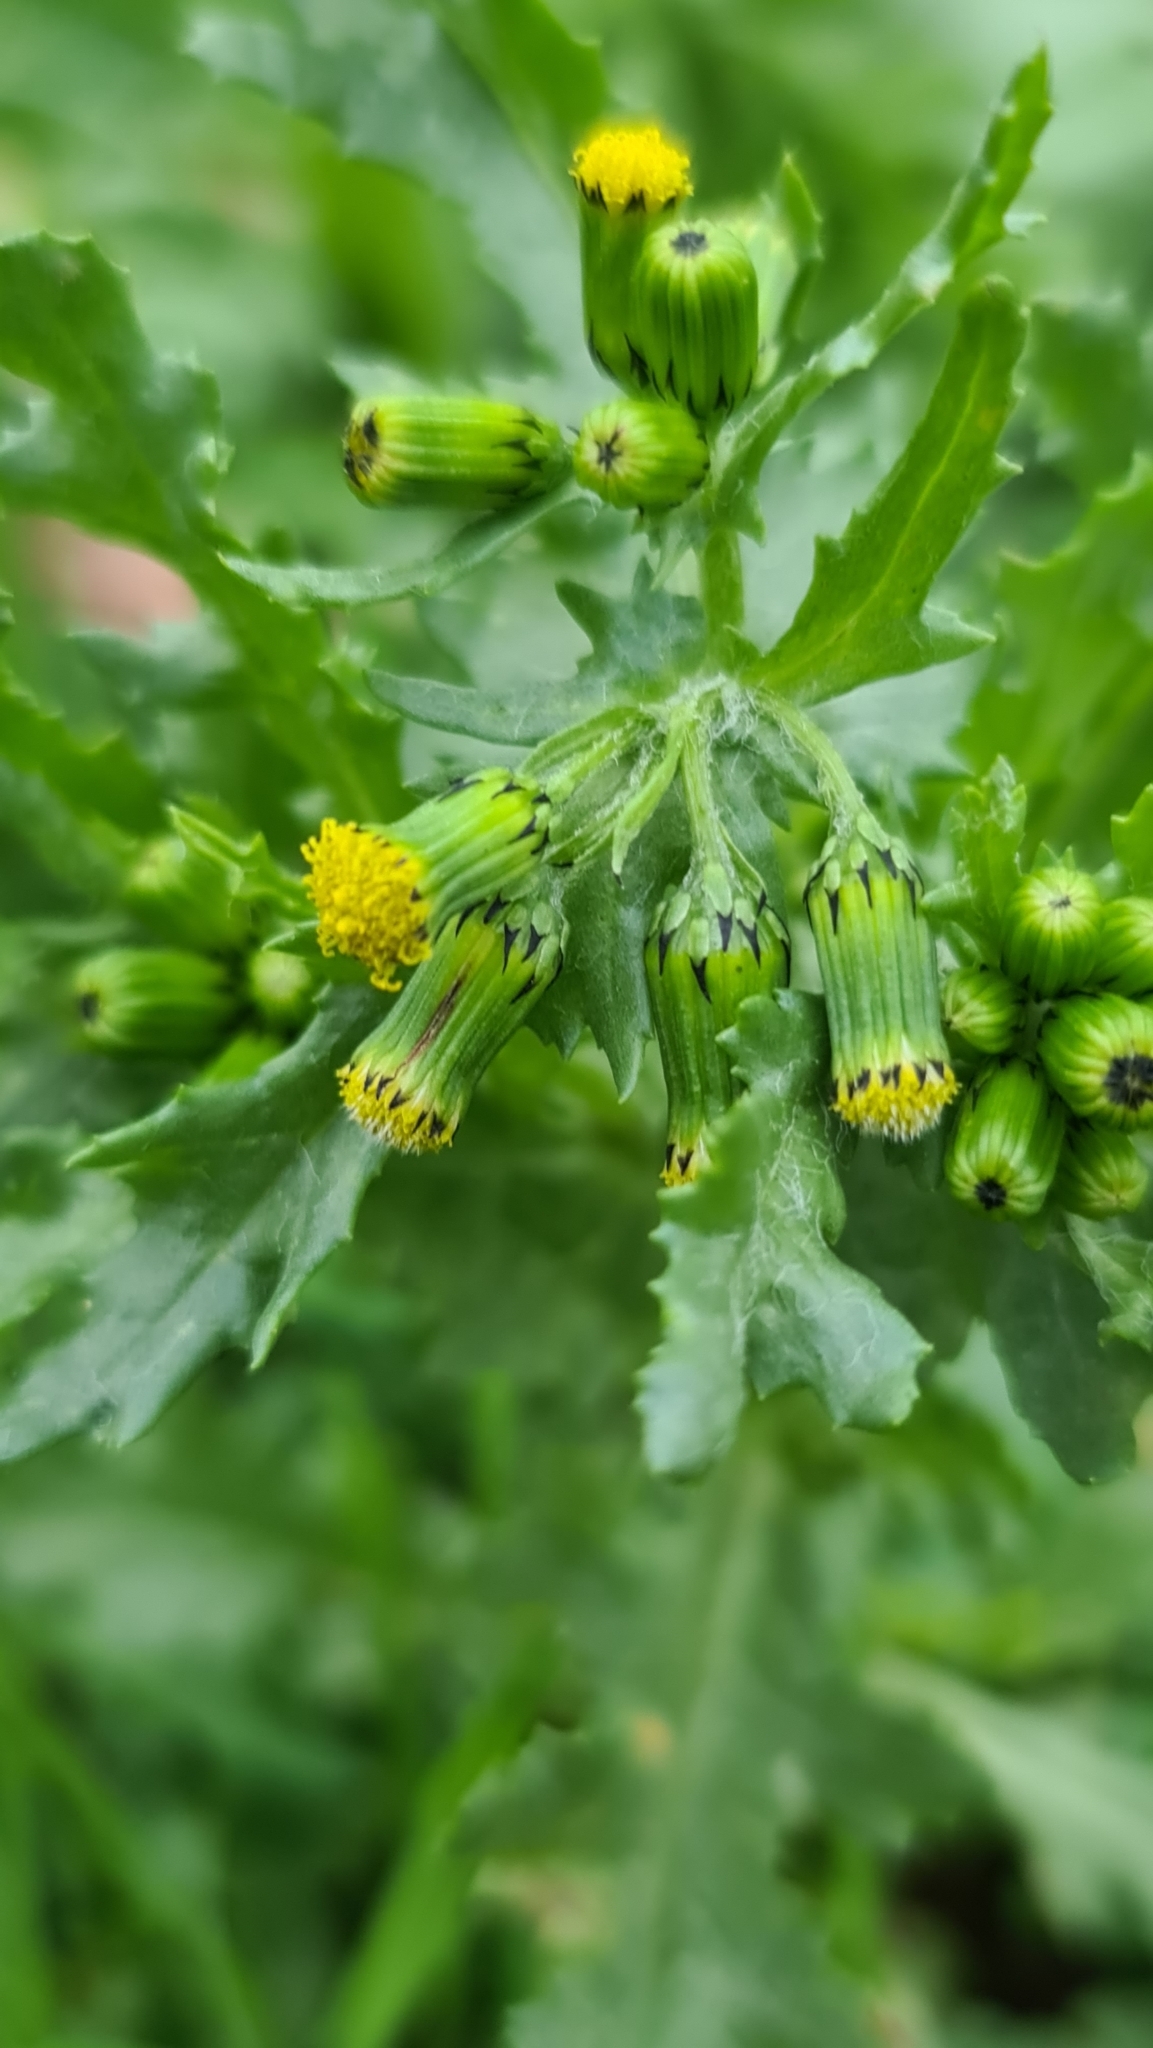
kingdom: Plantae
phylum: Tracheophyta
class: Magnoliopsida
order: Asterales
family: Asteraceae
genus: Senecio
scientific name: Senecio vulgaris
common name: Old-man-in-the-spring
